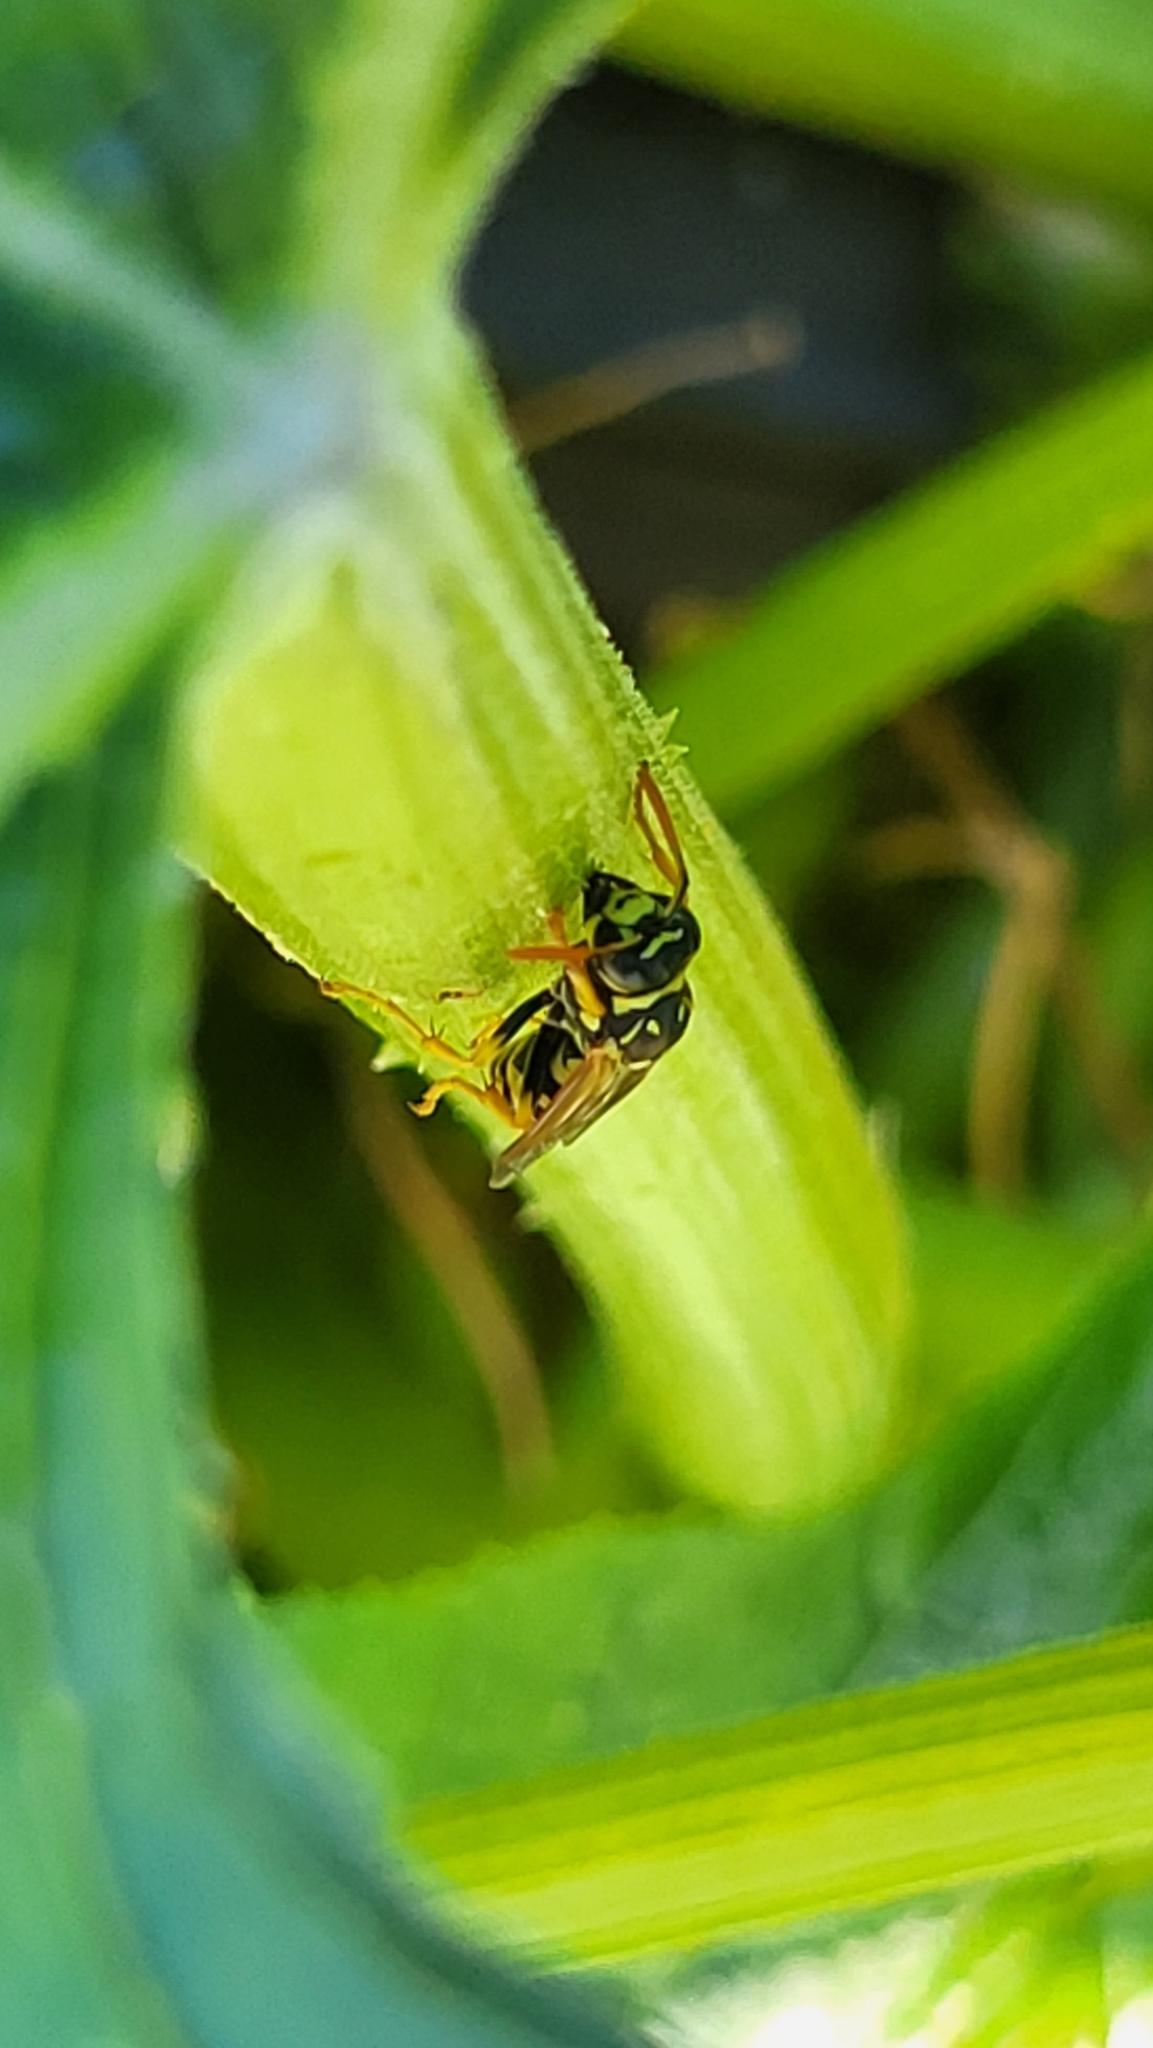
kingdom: Animalia
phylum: Arthropoda
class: Insecta
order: Hymenoptera
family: Eumenidae
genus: Polistes
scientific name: Polistes dominula
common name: Paper wasp
